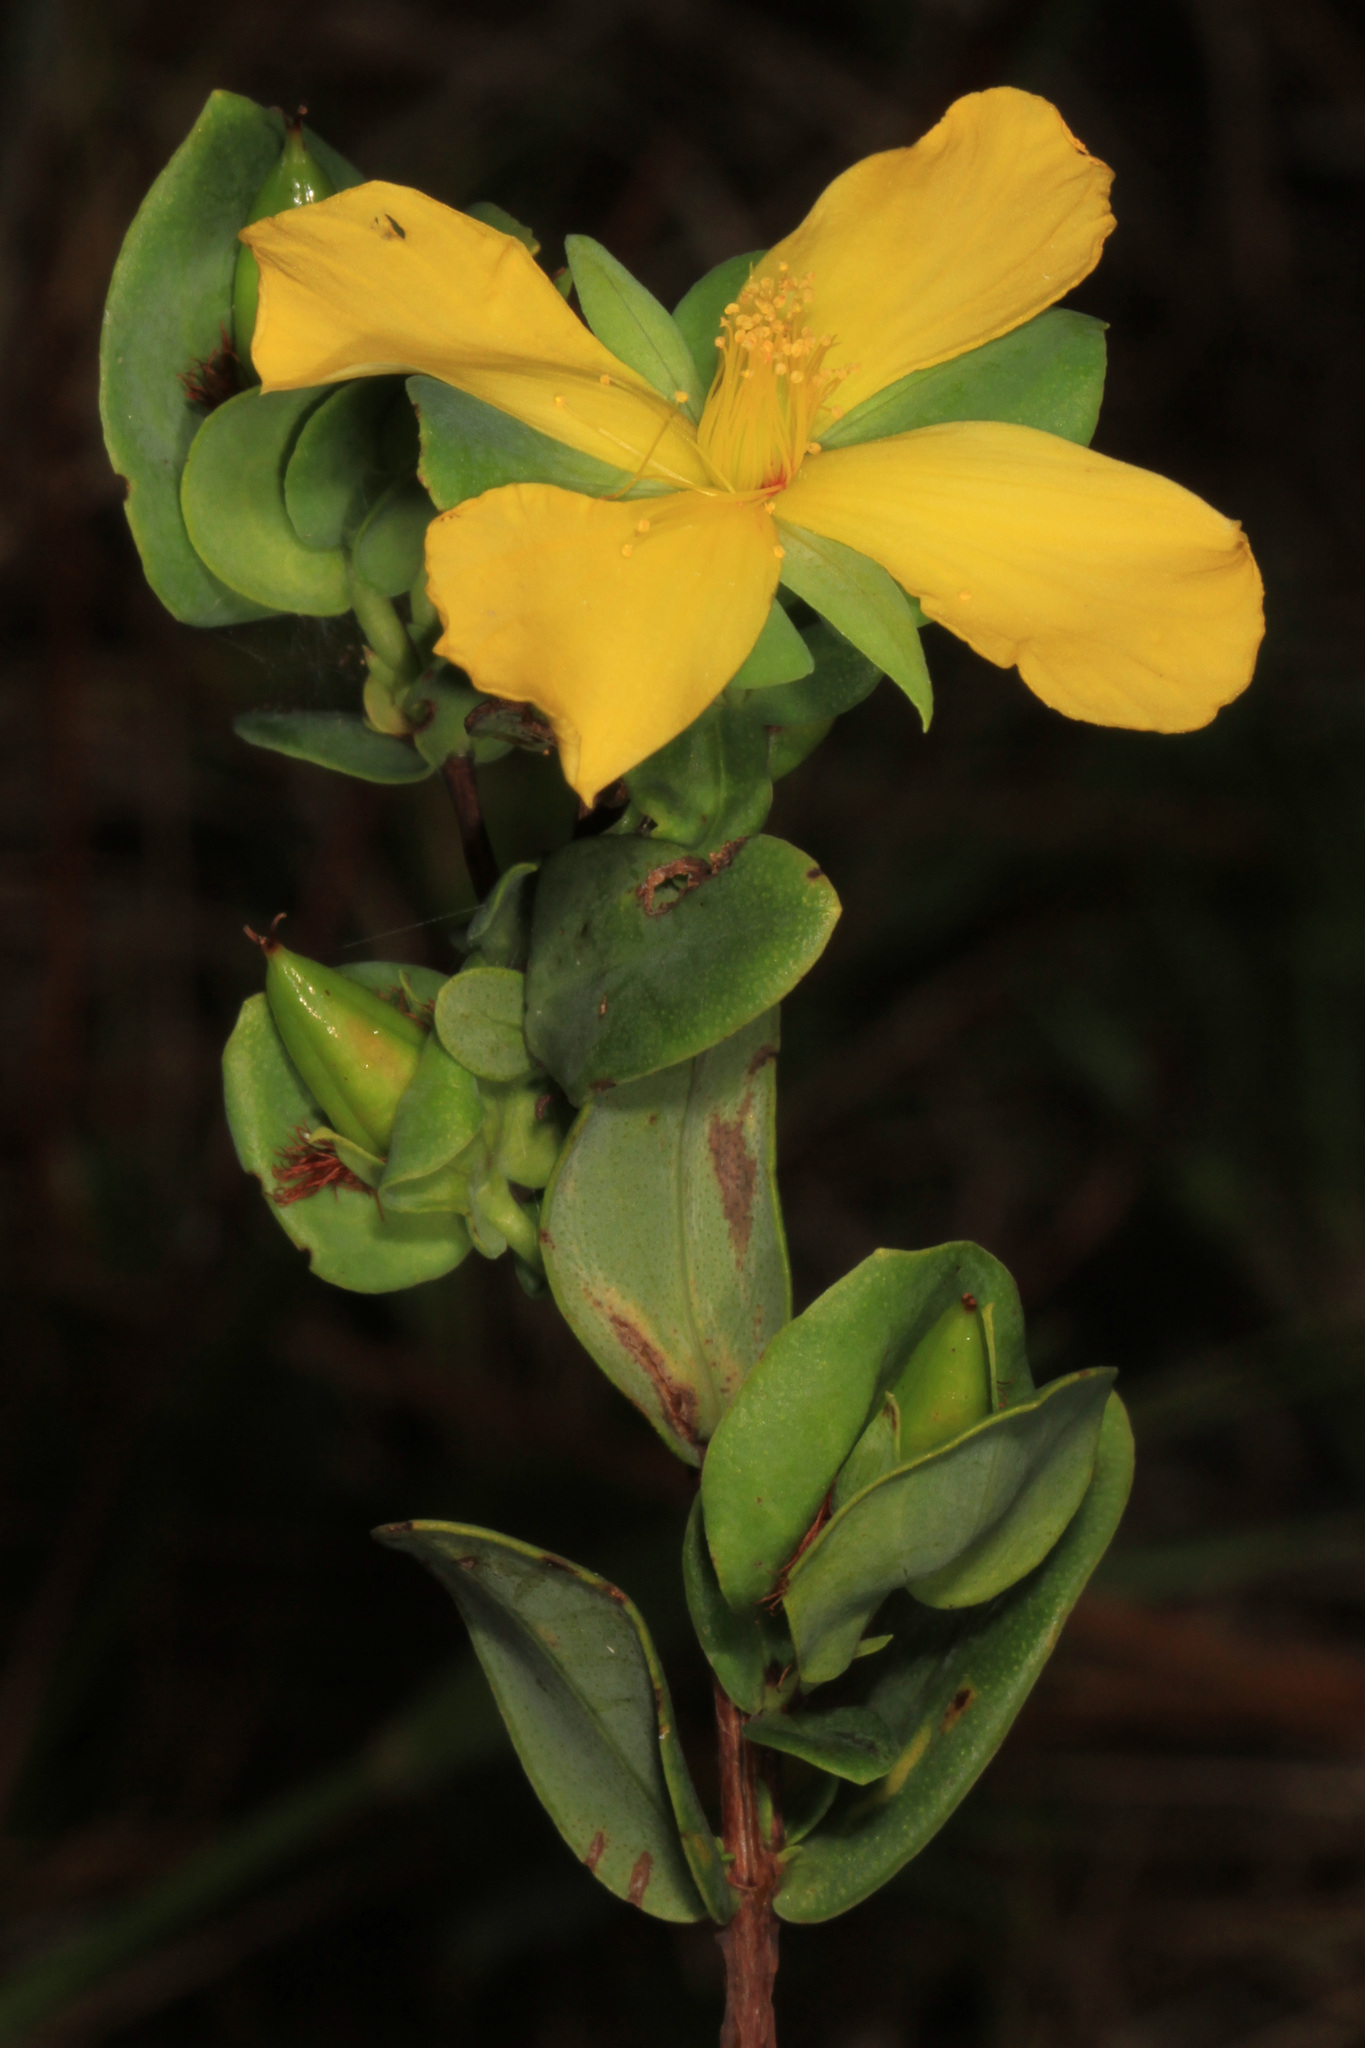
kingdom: Plantae
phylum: Tracheophyta
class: Magnoliopsida
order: Malpighiales
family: Hypericaceae
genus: Hypericum
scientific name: Hypericum crux-andreae
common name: St.-peter's-wort
